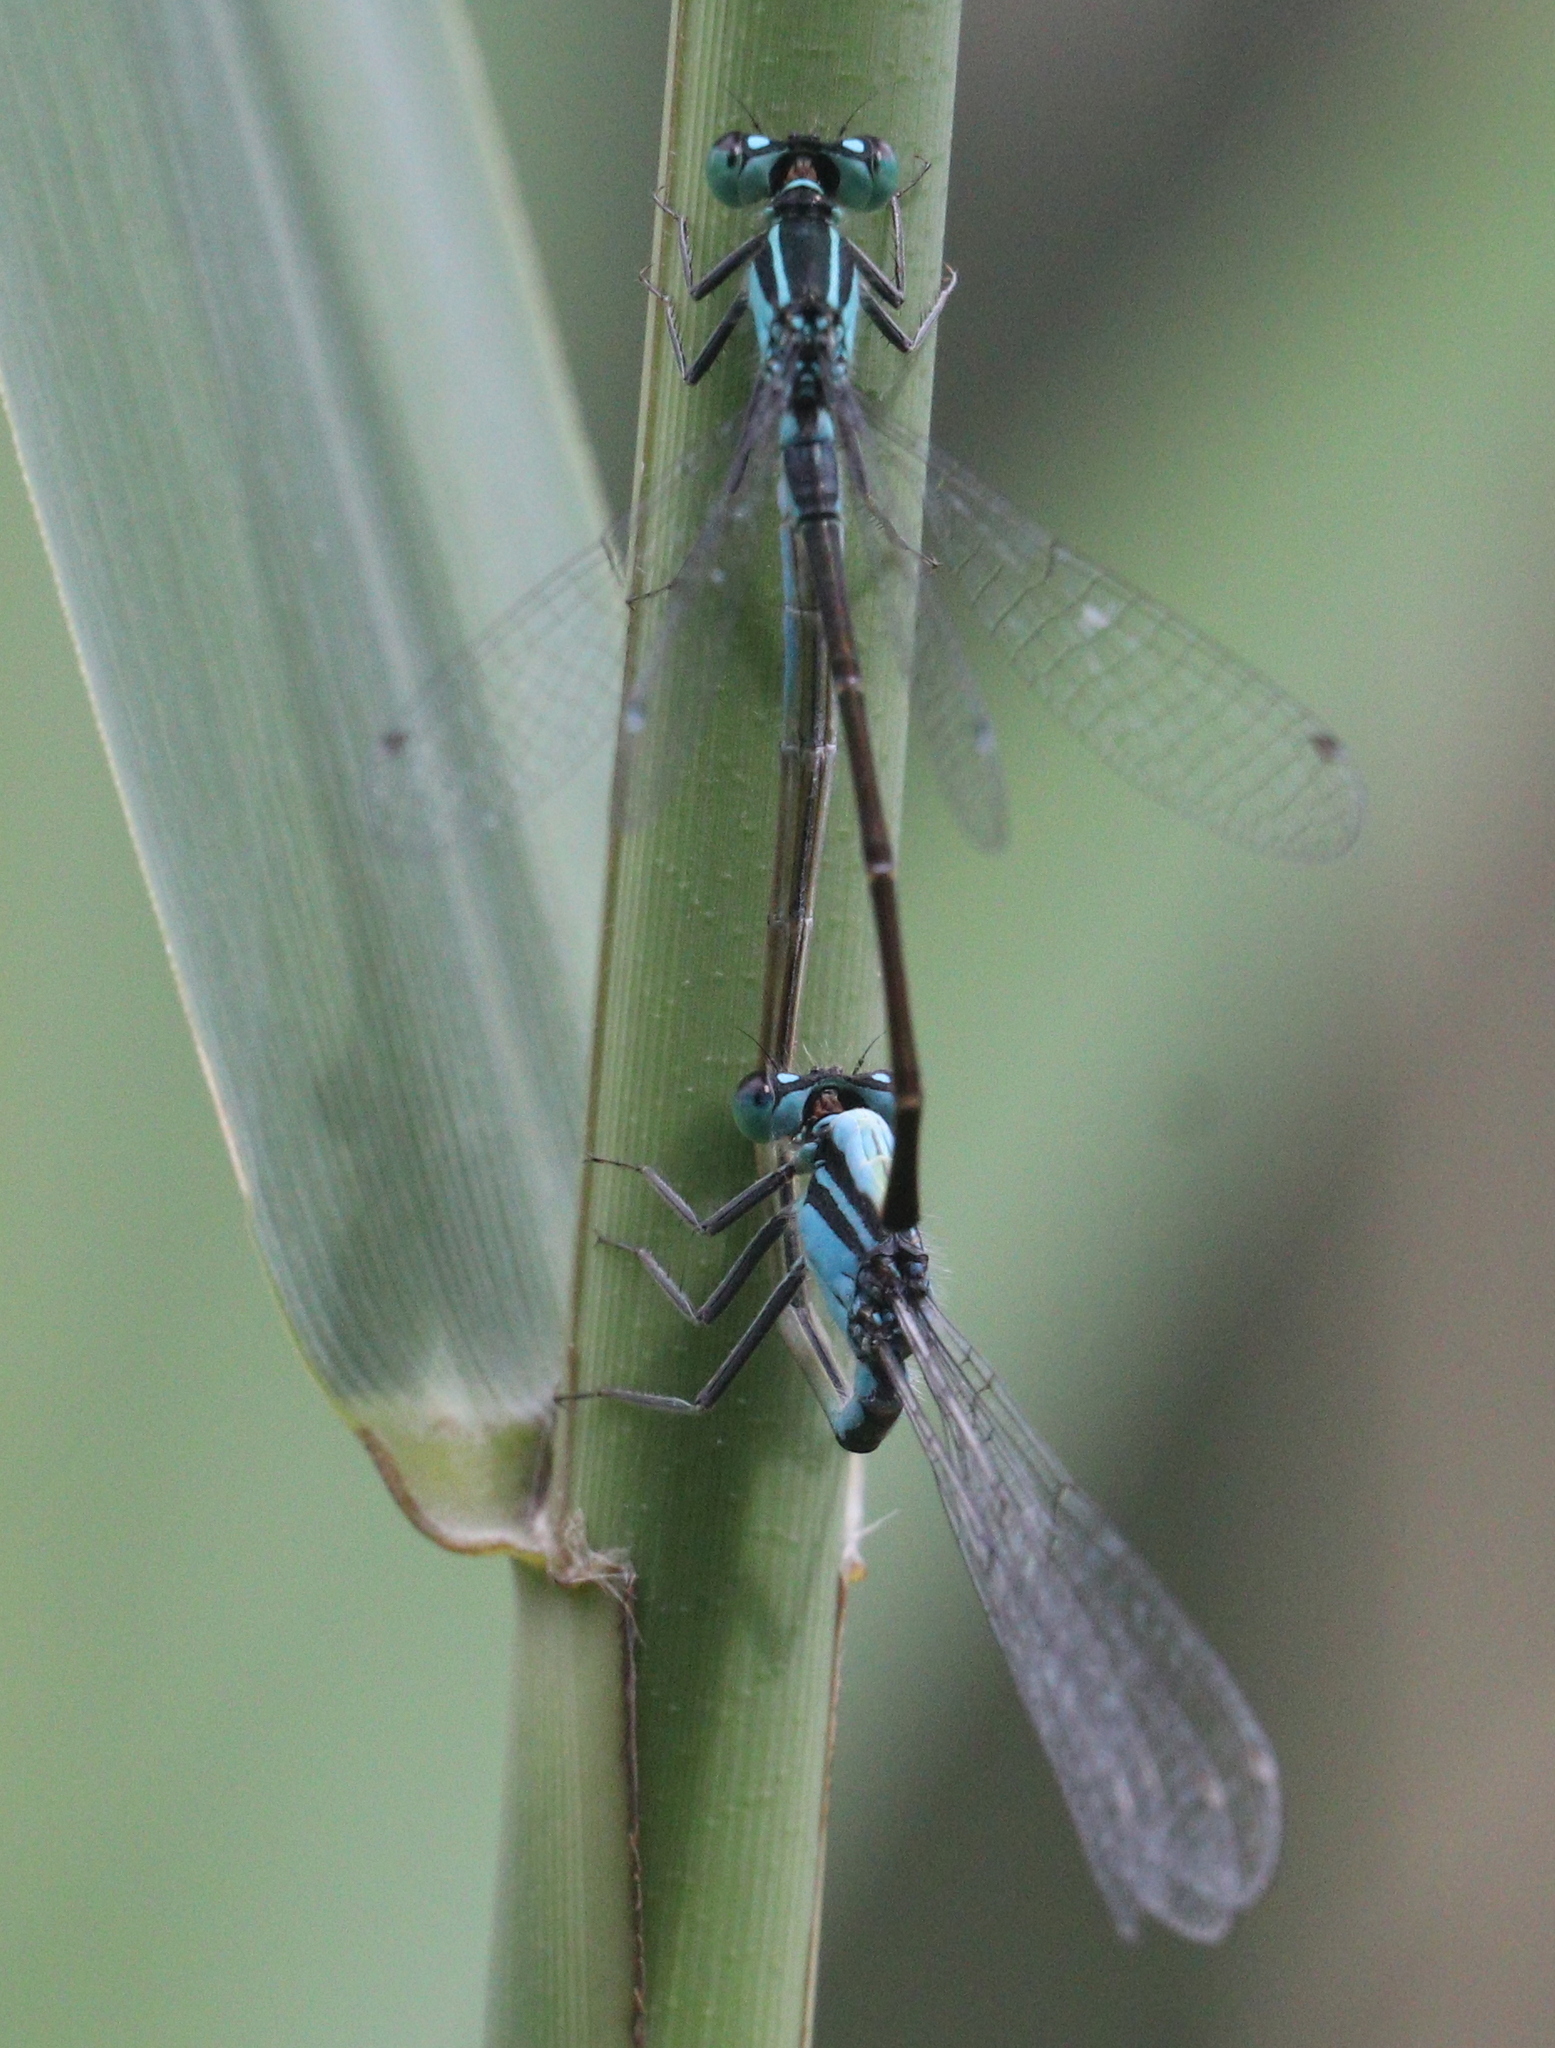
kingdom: Animalia
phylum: Arthropoda
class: Insecta
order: Odonata
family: Coenagrionidae
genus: Ischnura
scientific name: Ischnura elegans
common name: Blue-tailed damselfly
